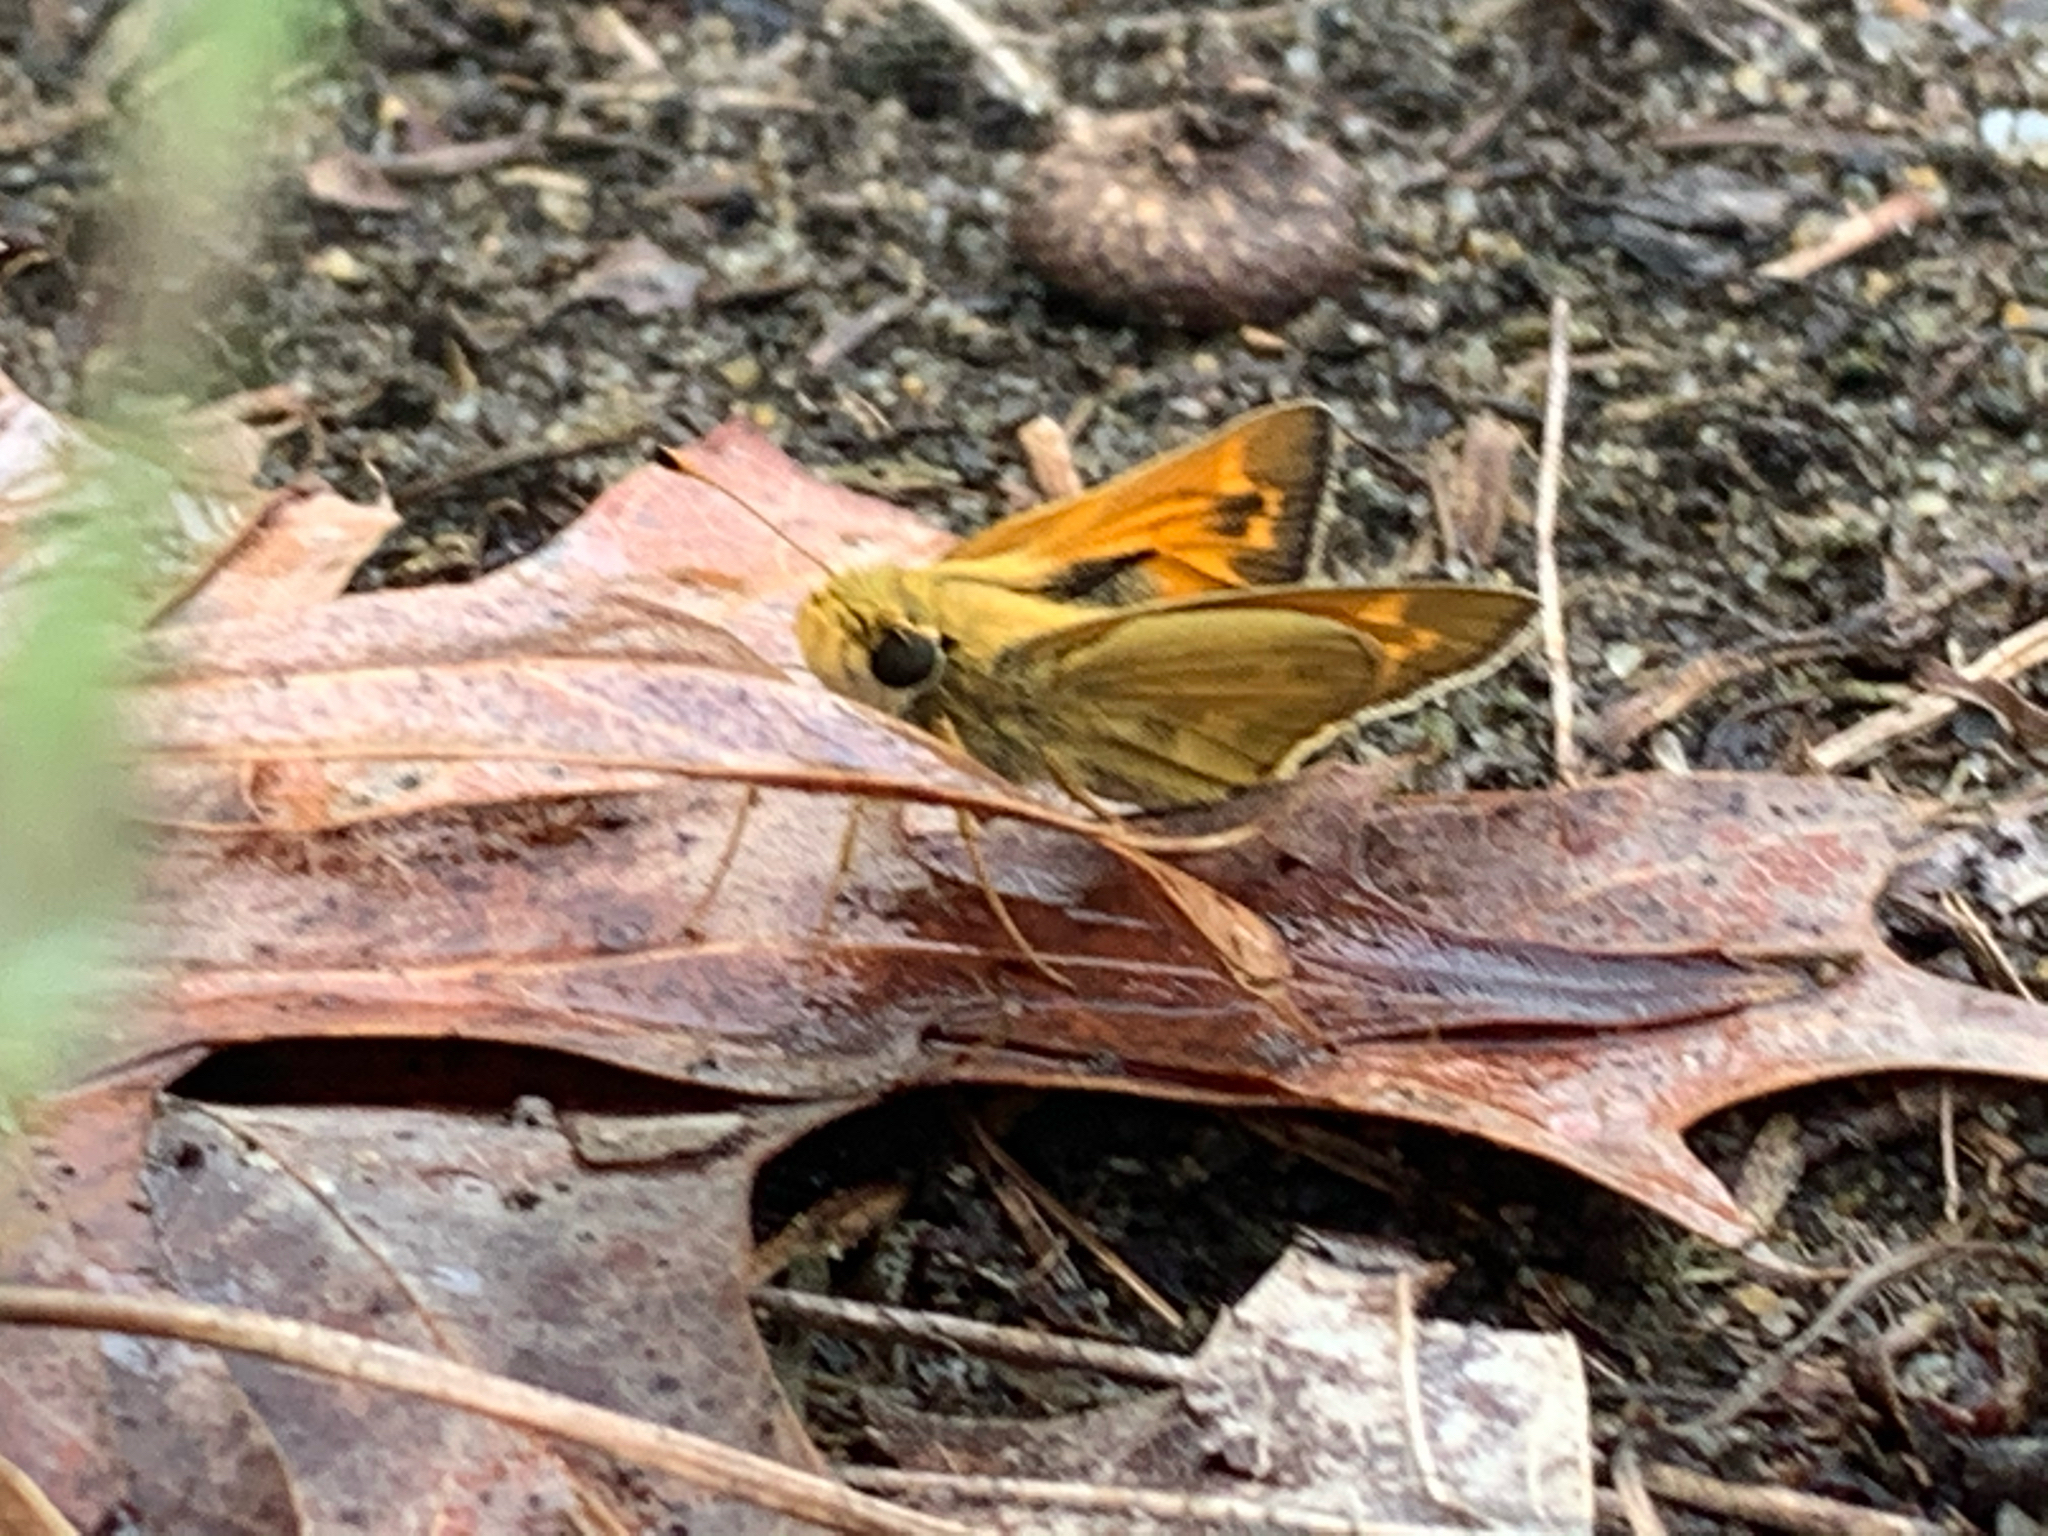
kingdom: Animalia
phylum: Arthropoda
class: Insecta
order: Lepidoptera
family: Hesperiidae
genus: Atalopedes
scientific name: Atalopedes
